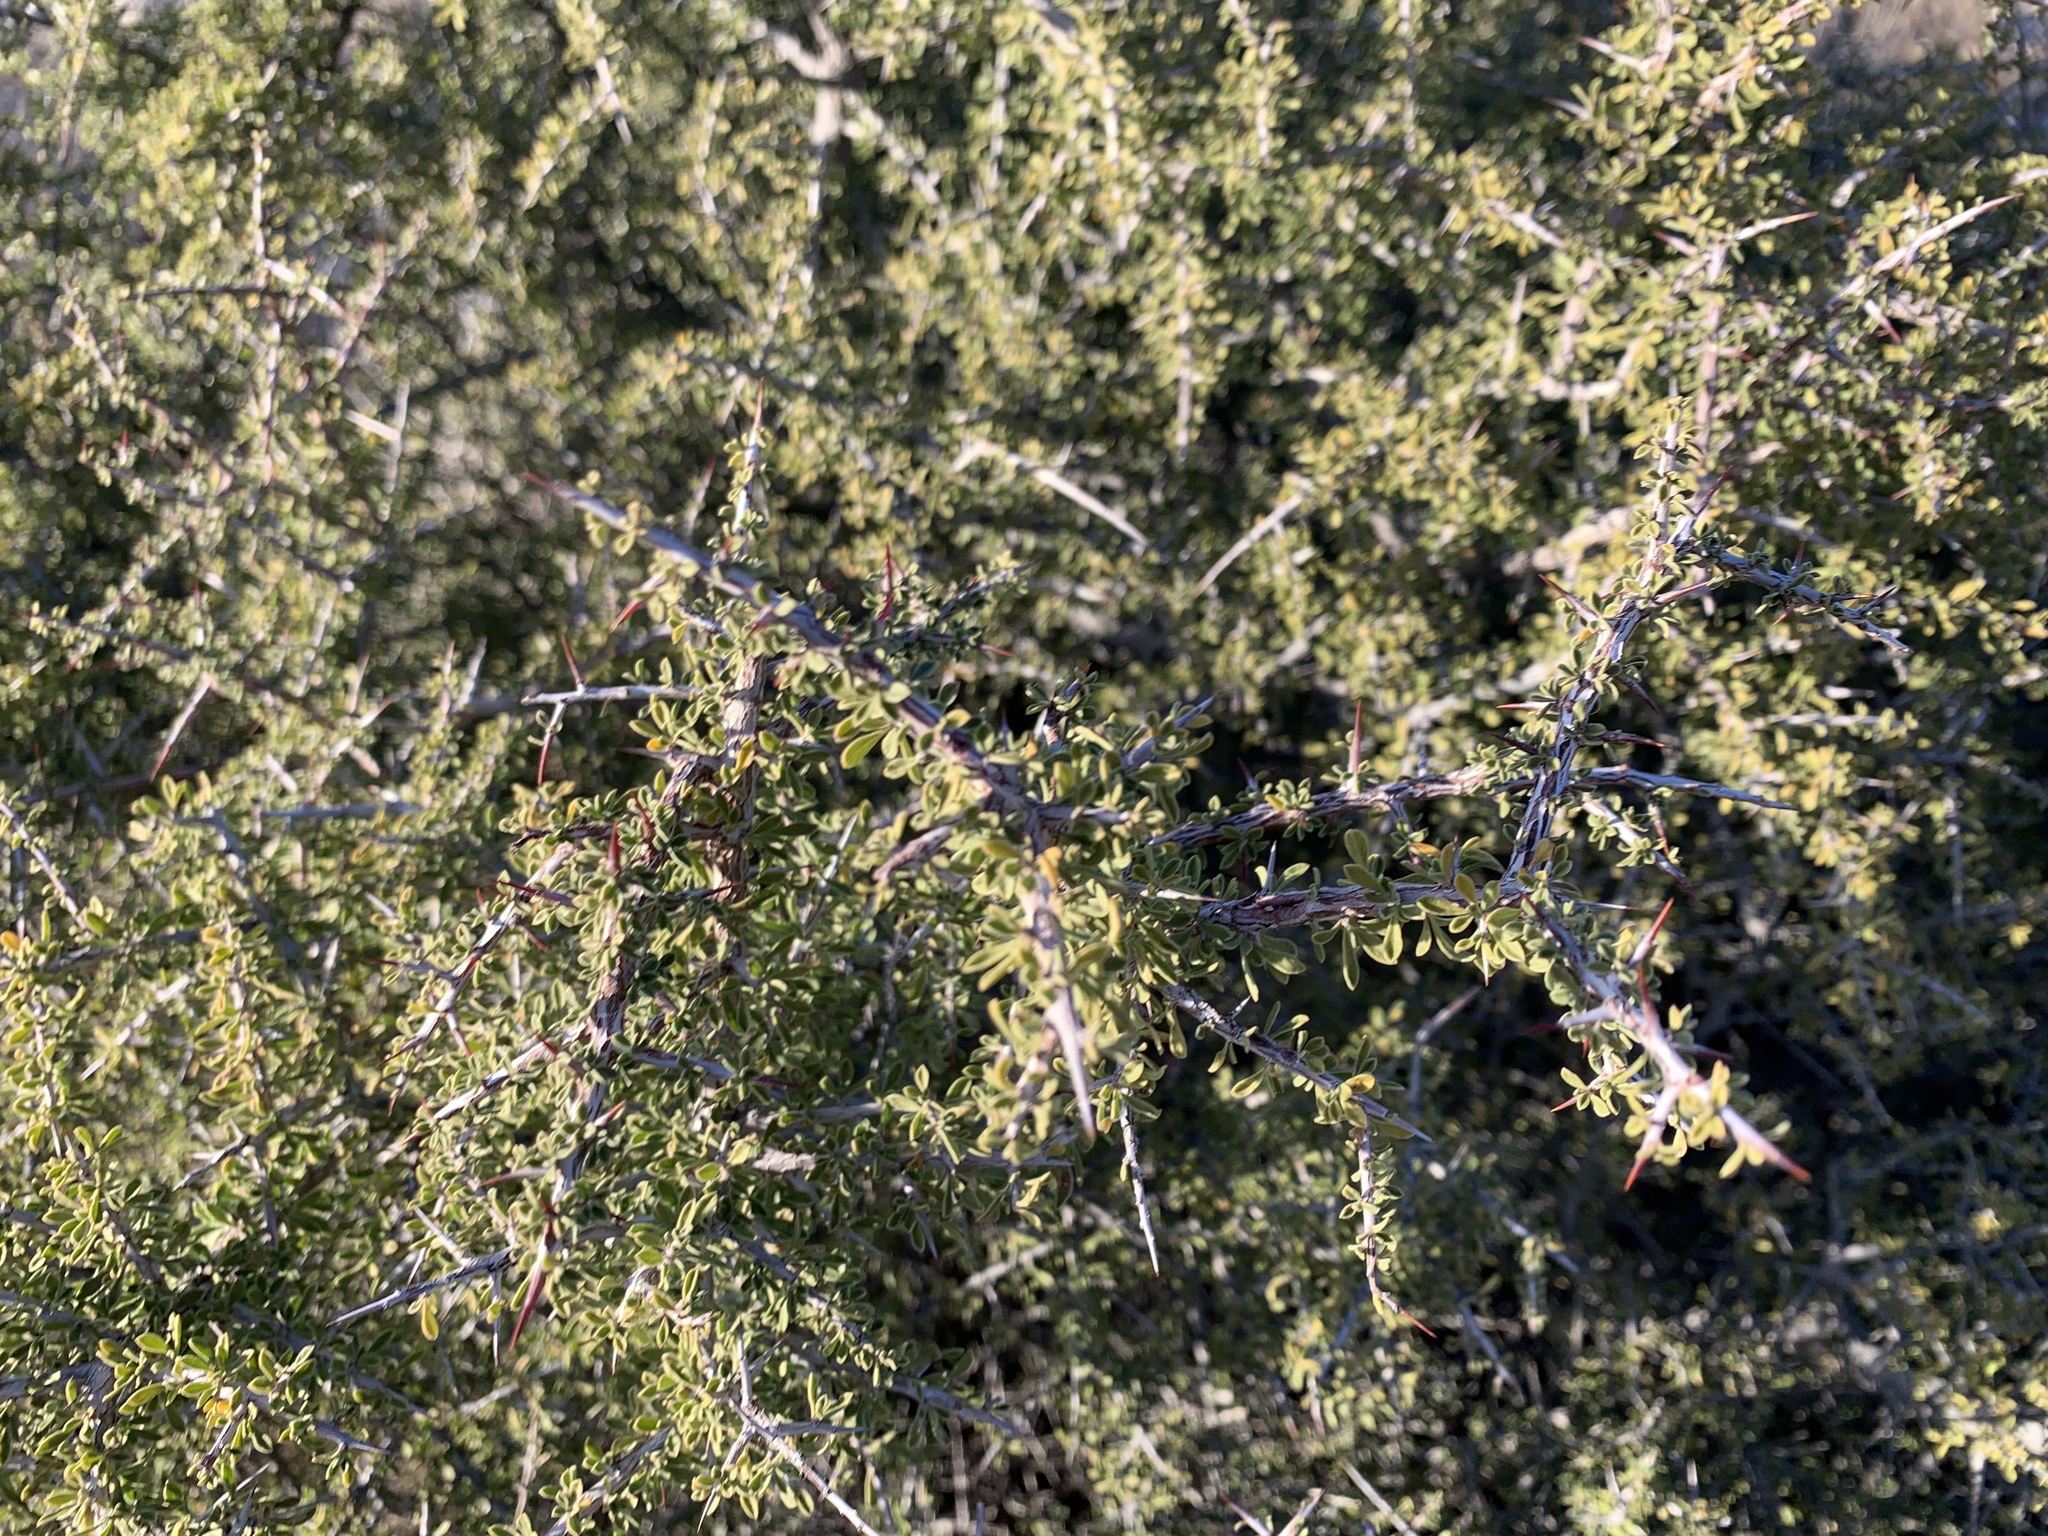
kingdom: Plantae
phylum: Tracheophyta
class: Magnoliopsida
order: Rosales
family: Rhamnaceae
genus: Condalia
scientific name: Condalia warnockii
